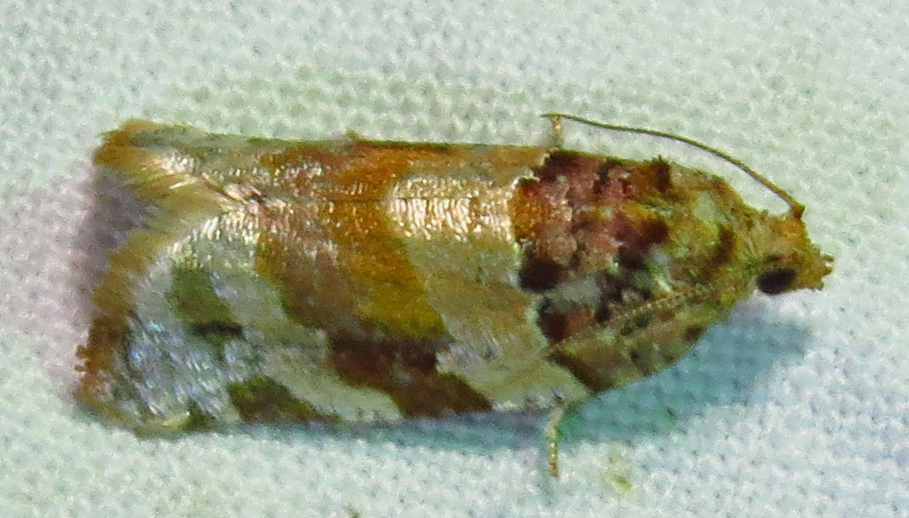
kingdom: Animalia
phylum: Arthropoda
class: Insecta
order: Lepidoptera
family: Tortricidae
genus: Argyrotaenia
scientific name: Argyrotaenia kimballi
